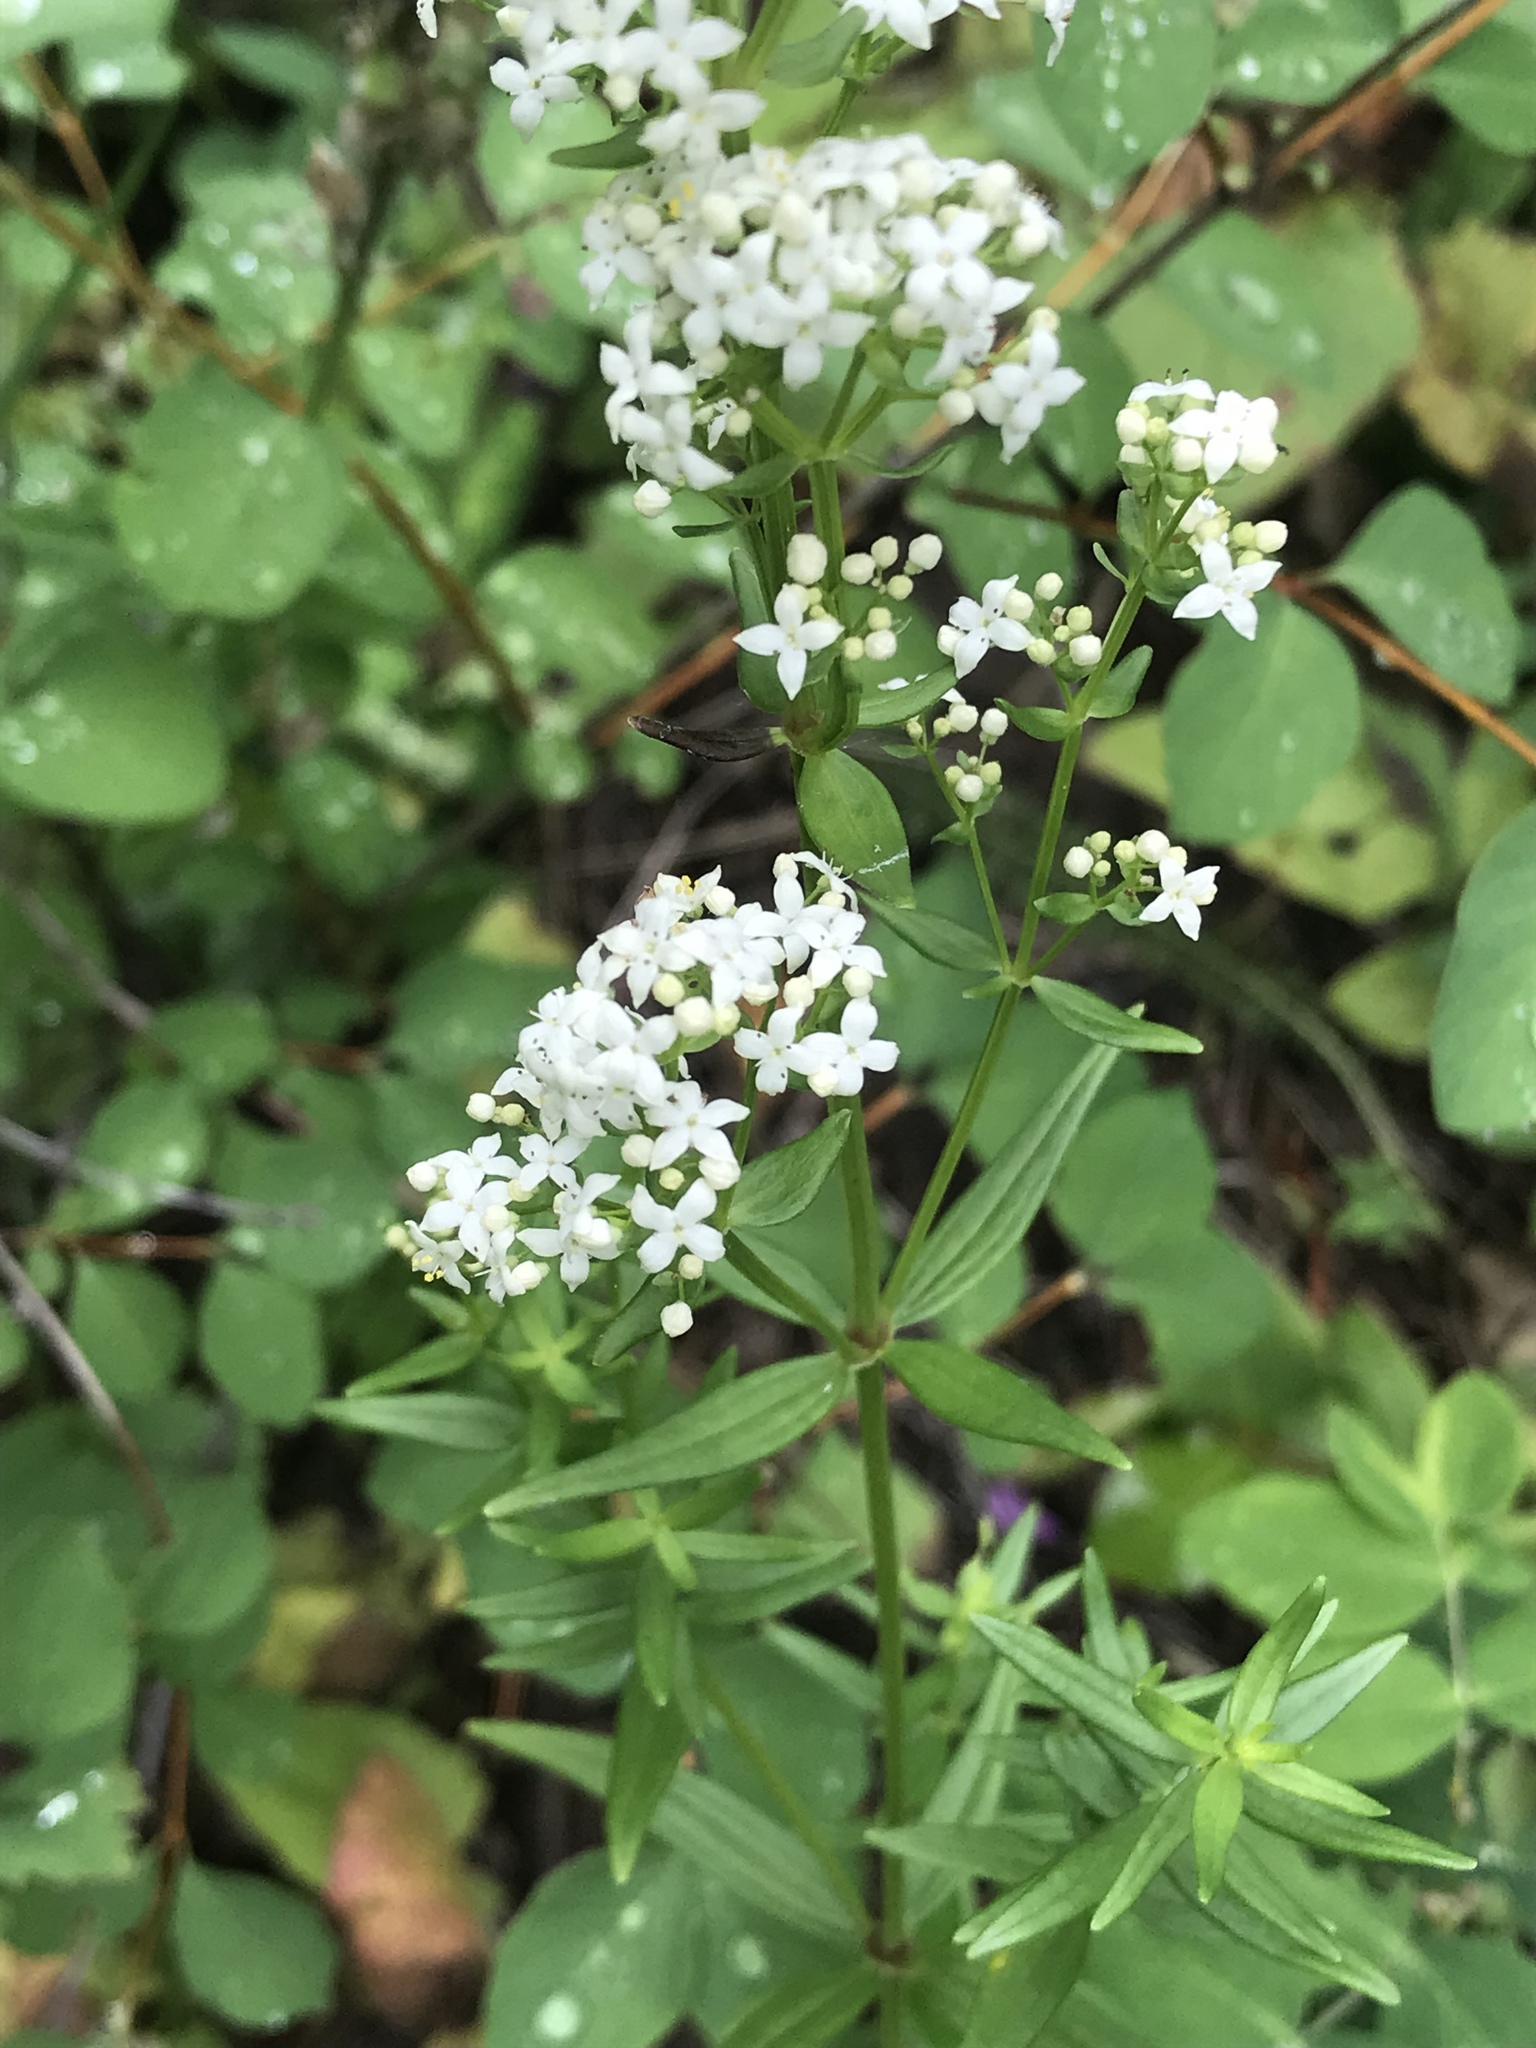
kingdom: Plantae
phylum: Tracheophyta
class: Magnoliopsida
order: Gentianales
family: Rubiaceae
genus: Galium
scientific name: Galium boreale
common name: Northern bedstraw
